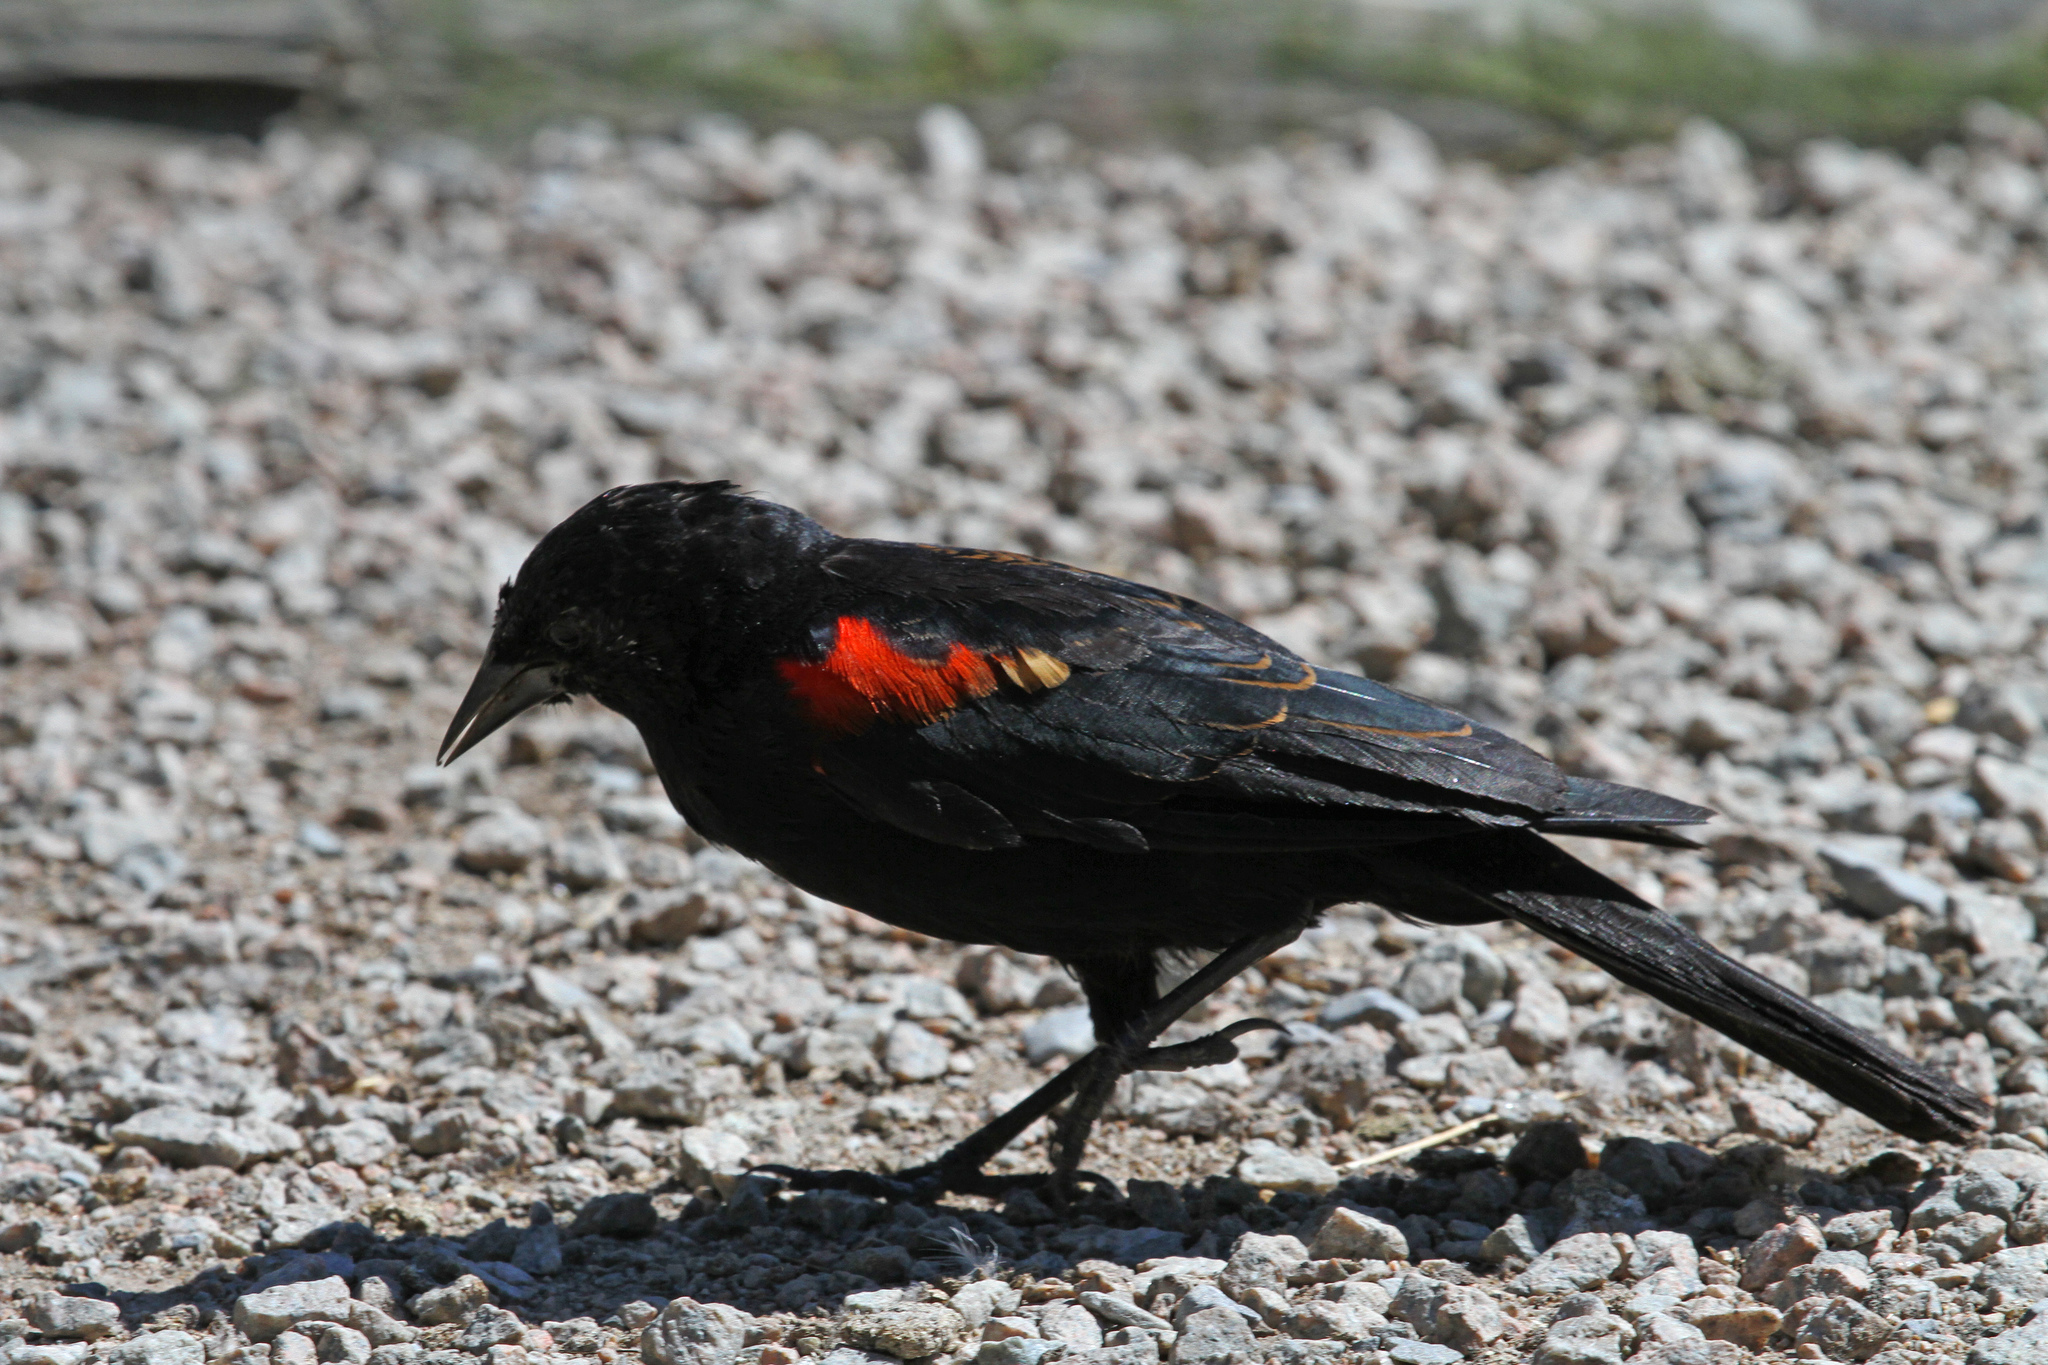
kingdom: Animalia
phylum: Chordata
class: Aves
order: Passeriformes
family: Icteridae
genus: Agelaius
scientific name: Agelaius phoeniceus
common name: Red-winged blackbird
